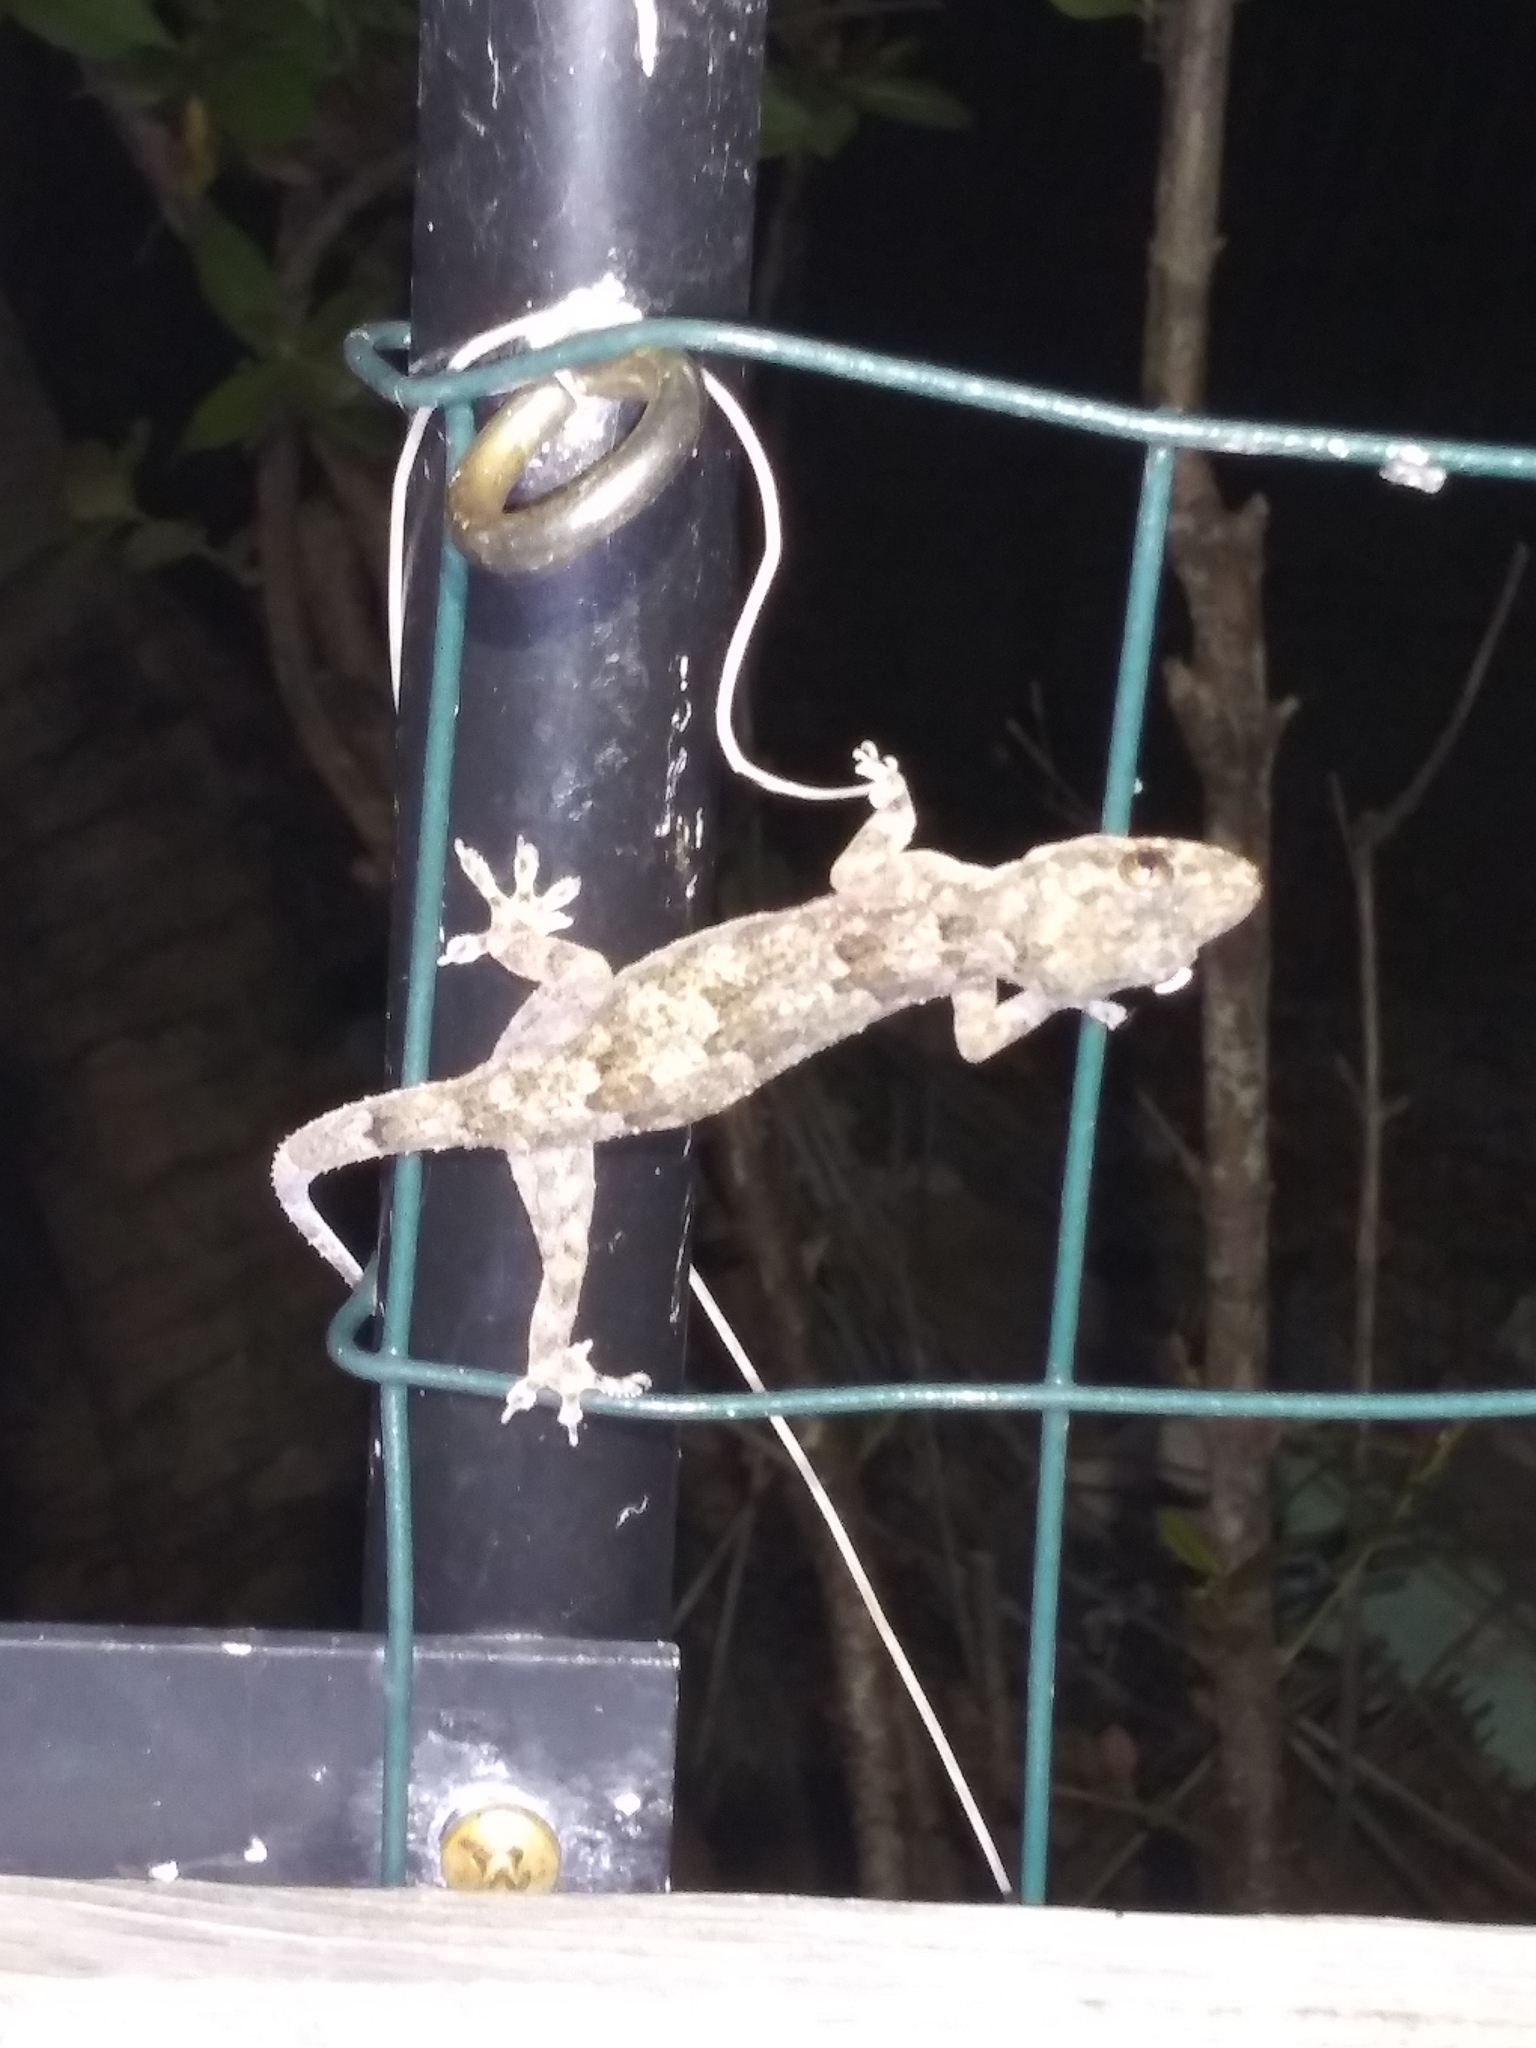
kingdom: Animalia
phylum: Chordata
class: Squamata
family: Gekkonidae
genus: Hemidactylus
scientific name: Hemidactylus mabouia
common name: House gecko
